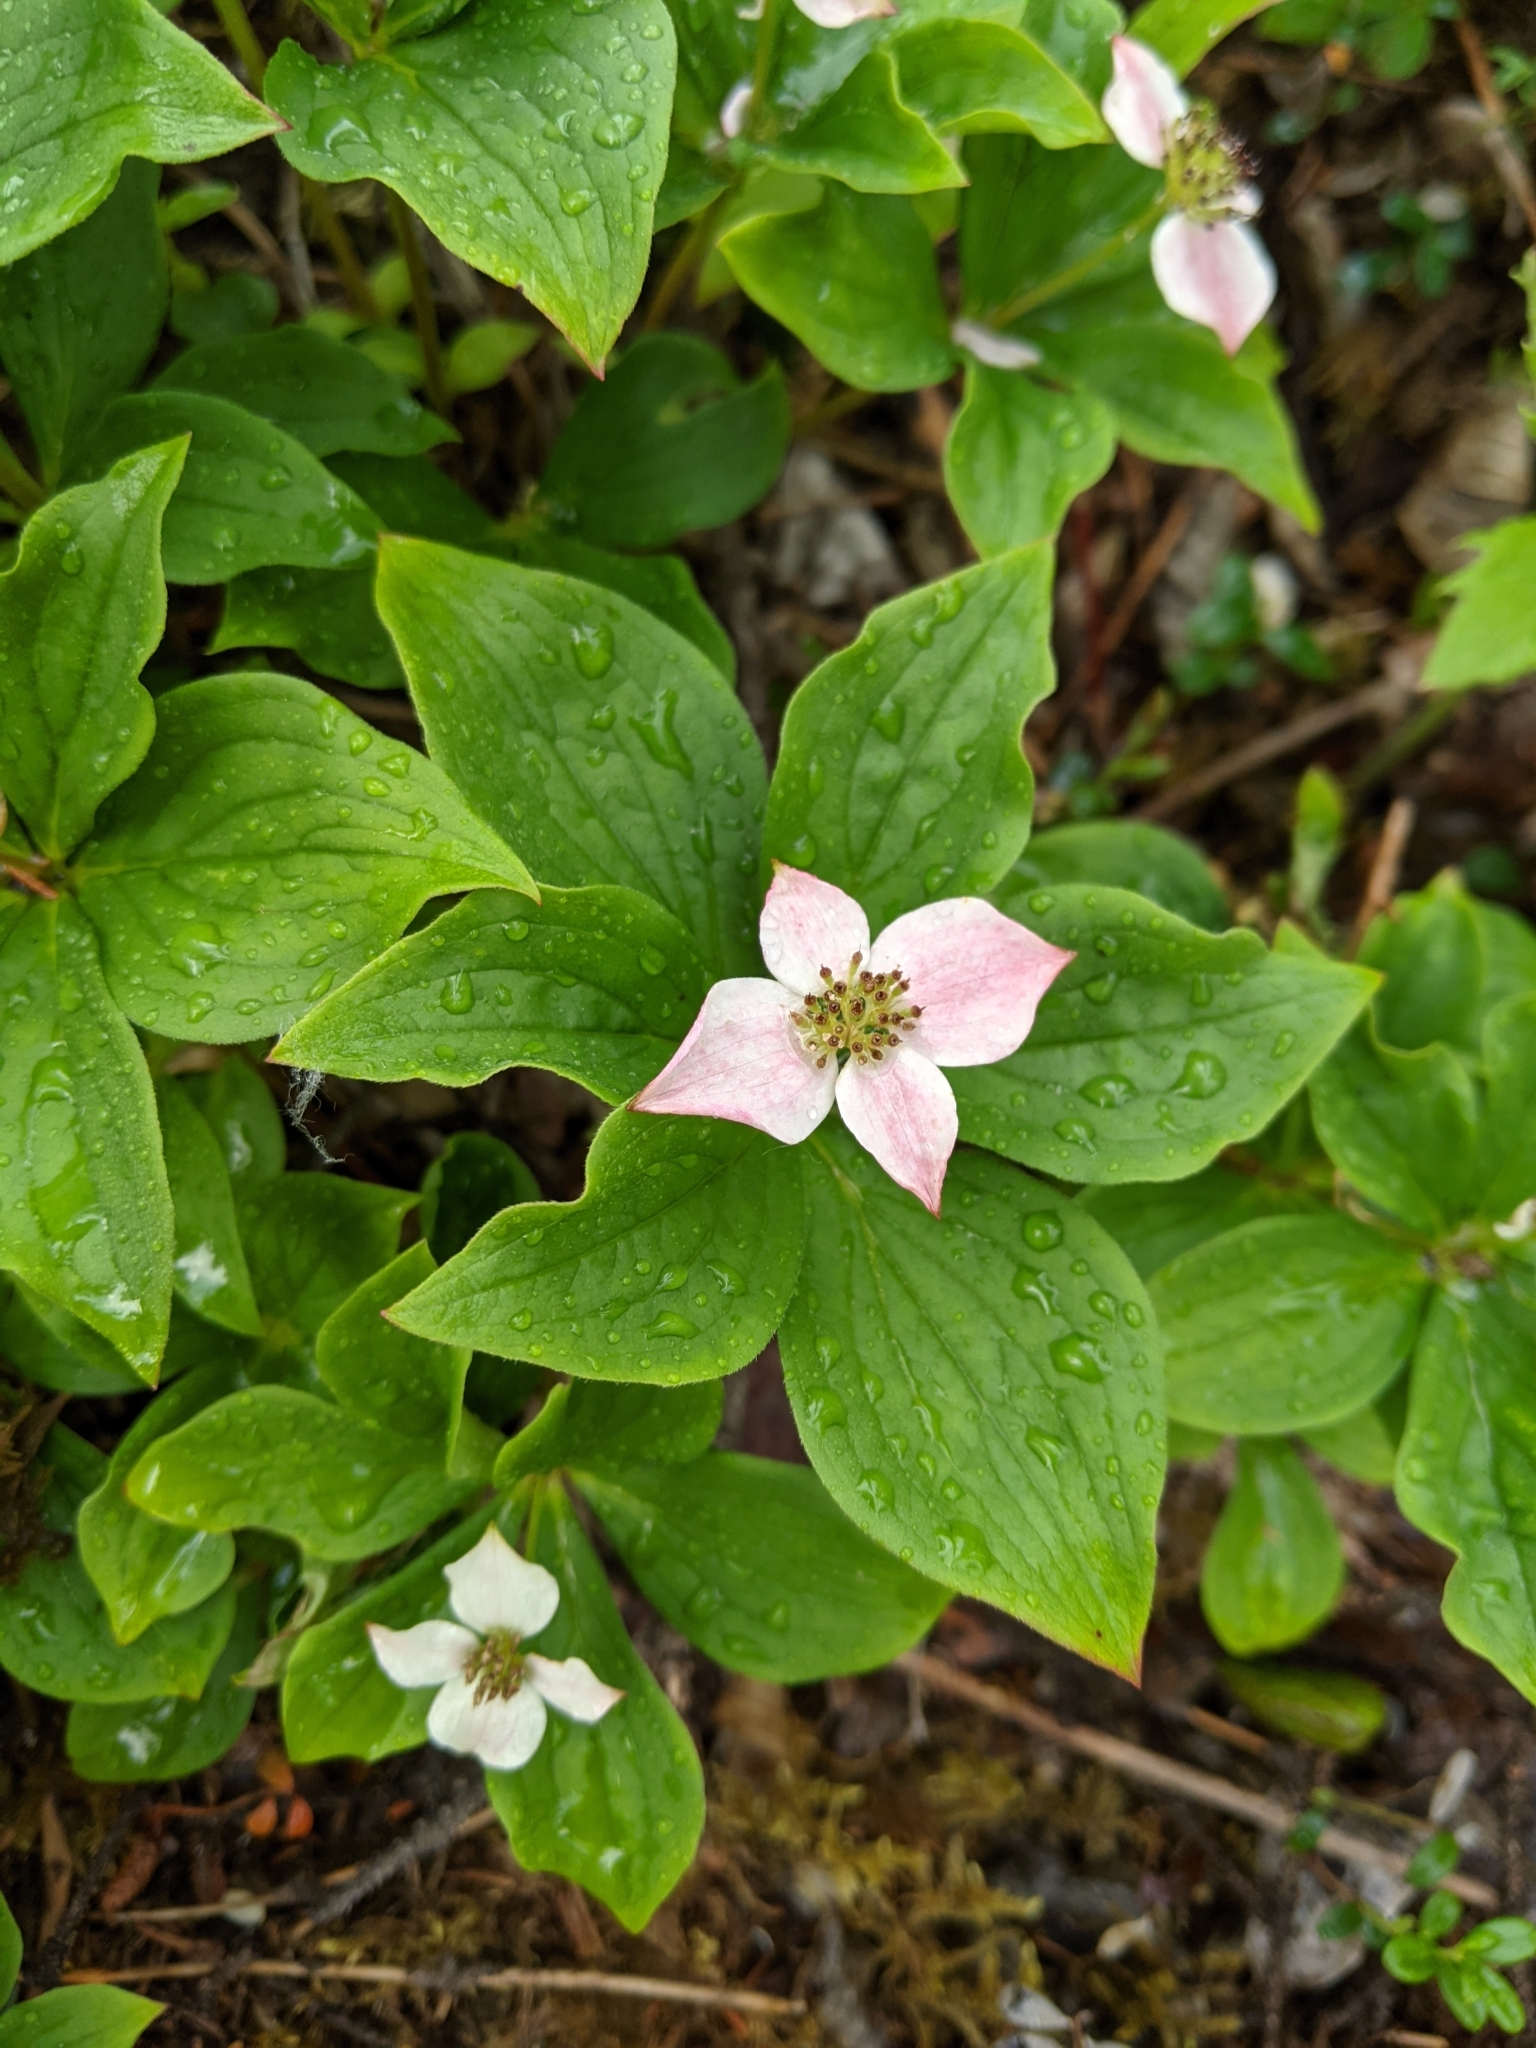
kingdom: Plantae
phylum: Tracheophyta
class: Magnoliopsida
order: Cornales
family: Cornaceae
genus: Cornus
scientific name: Cornus canadensis
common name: Creeping dogwood
